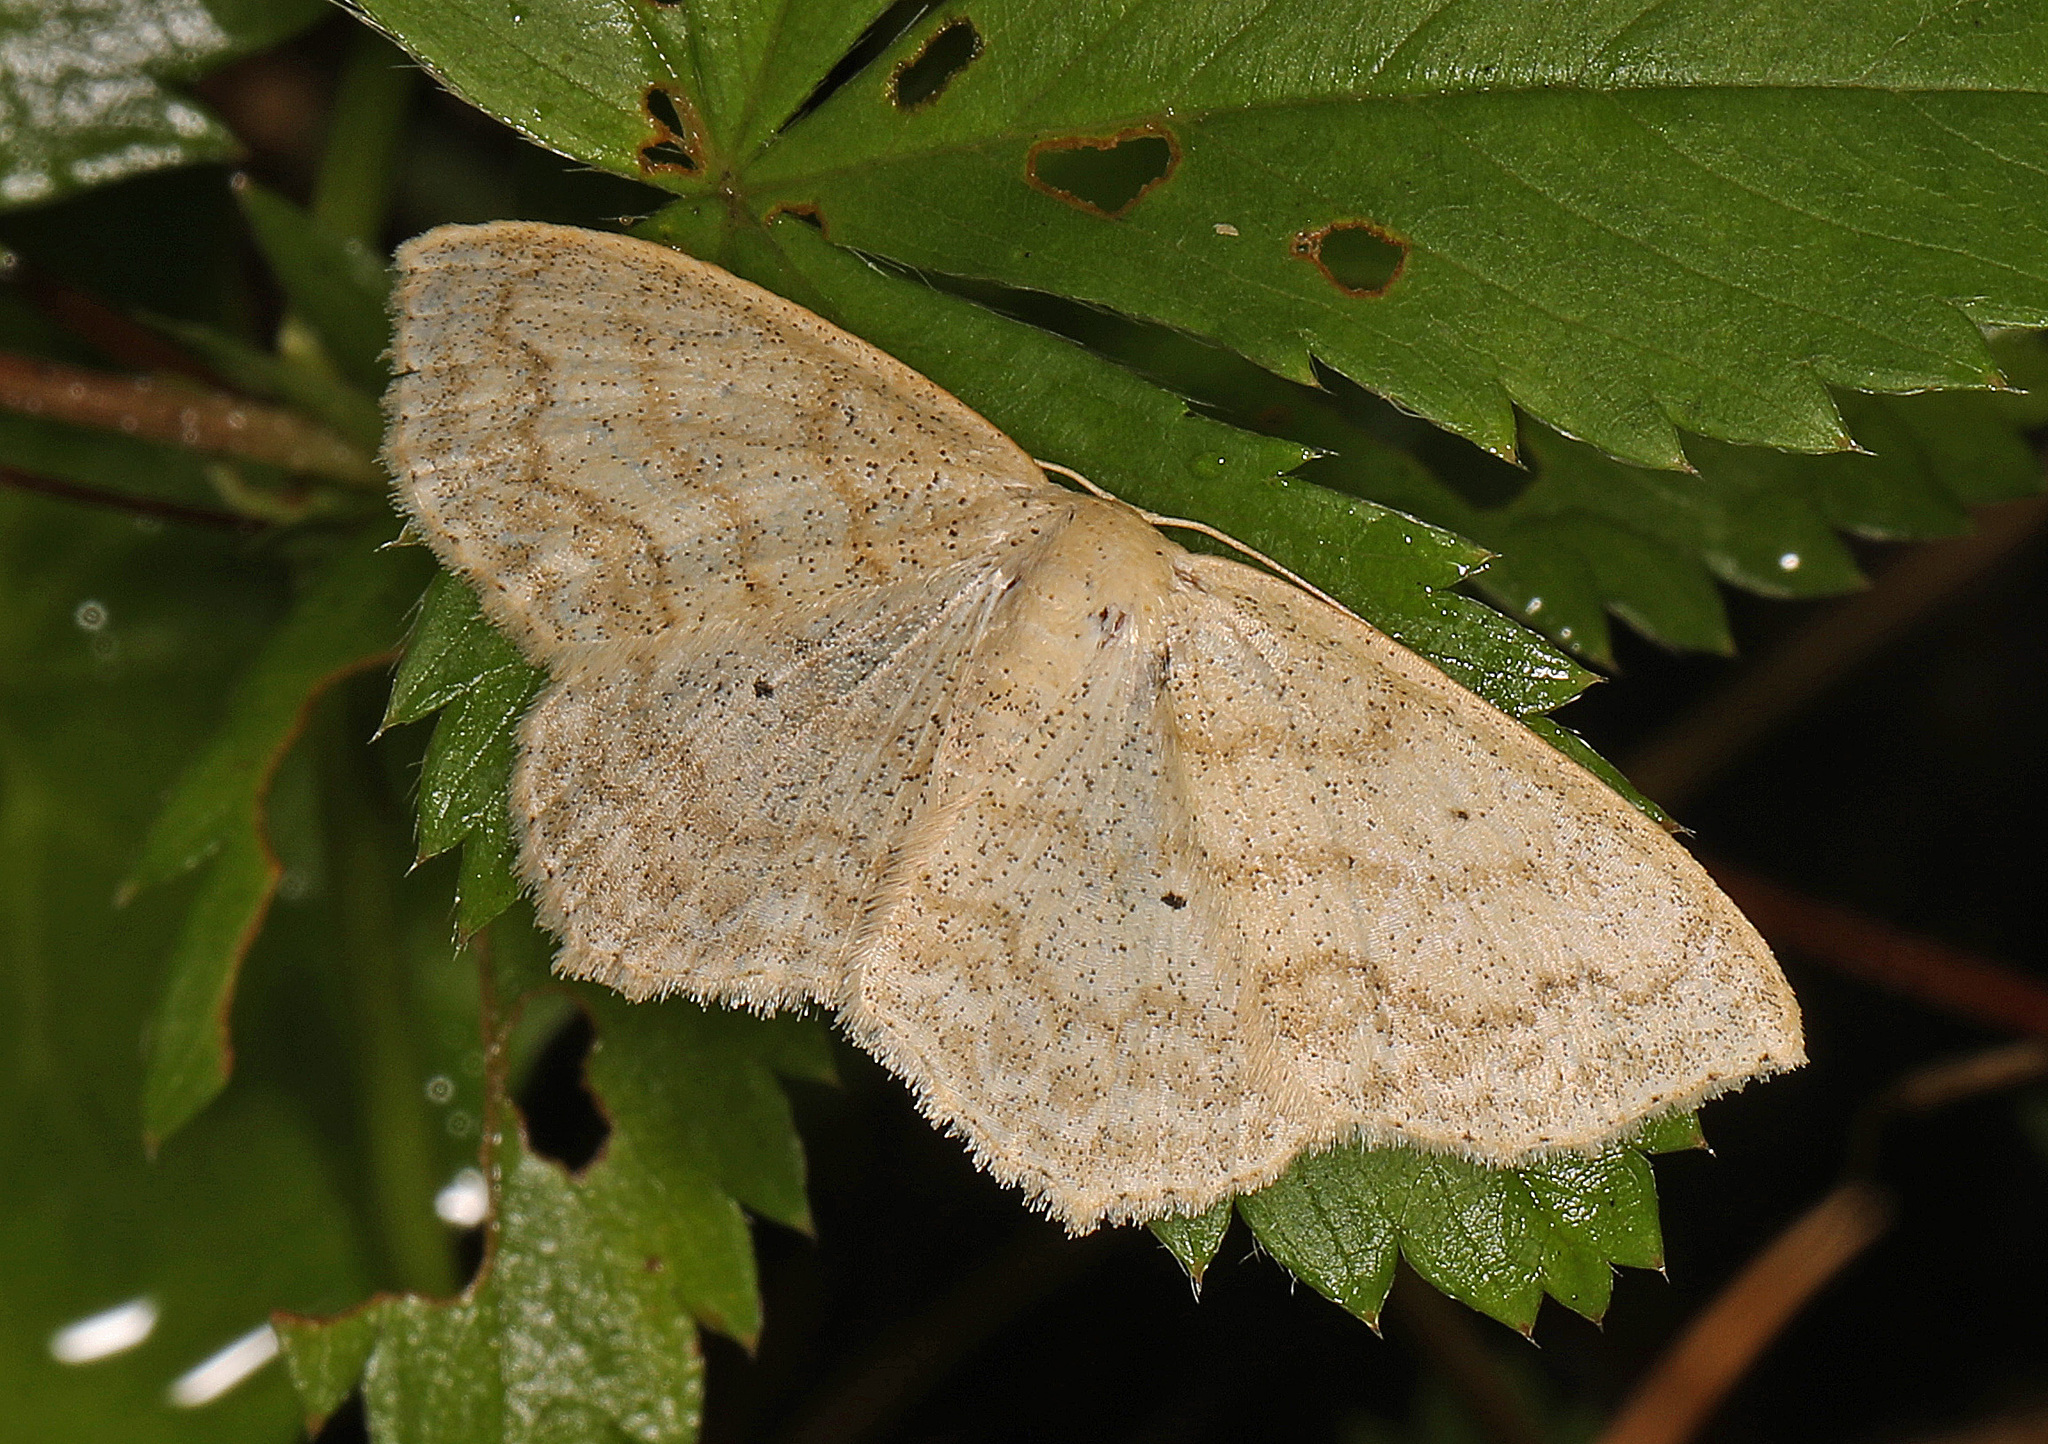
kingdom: Animalia
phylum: Arthropoda
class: Insecta
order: Lepidoptera
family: Geometridae
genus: Scopula
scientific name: Scopula limboundata
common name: Large lace border
